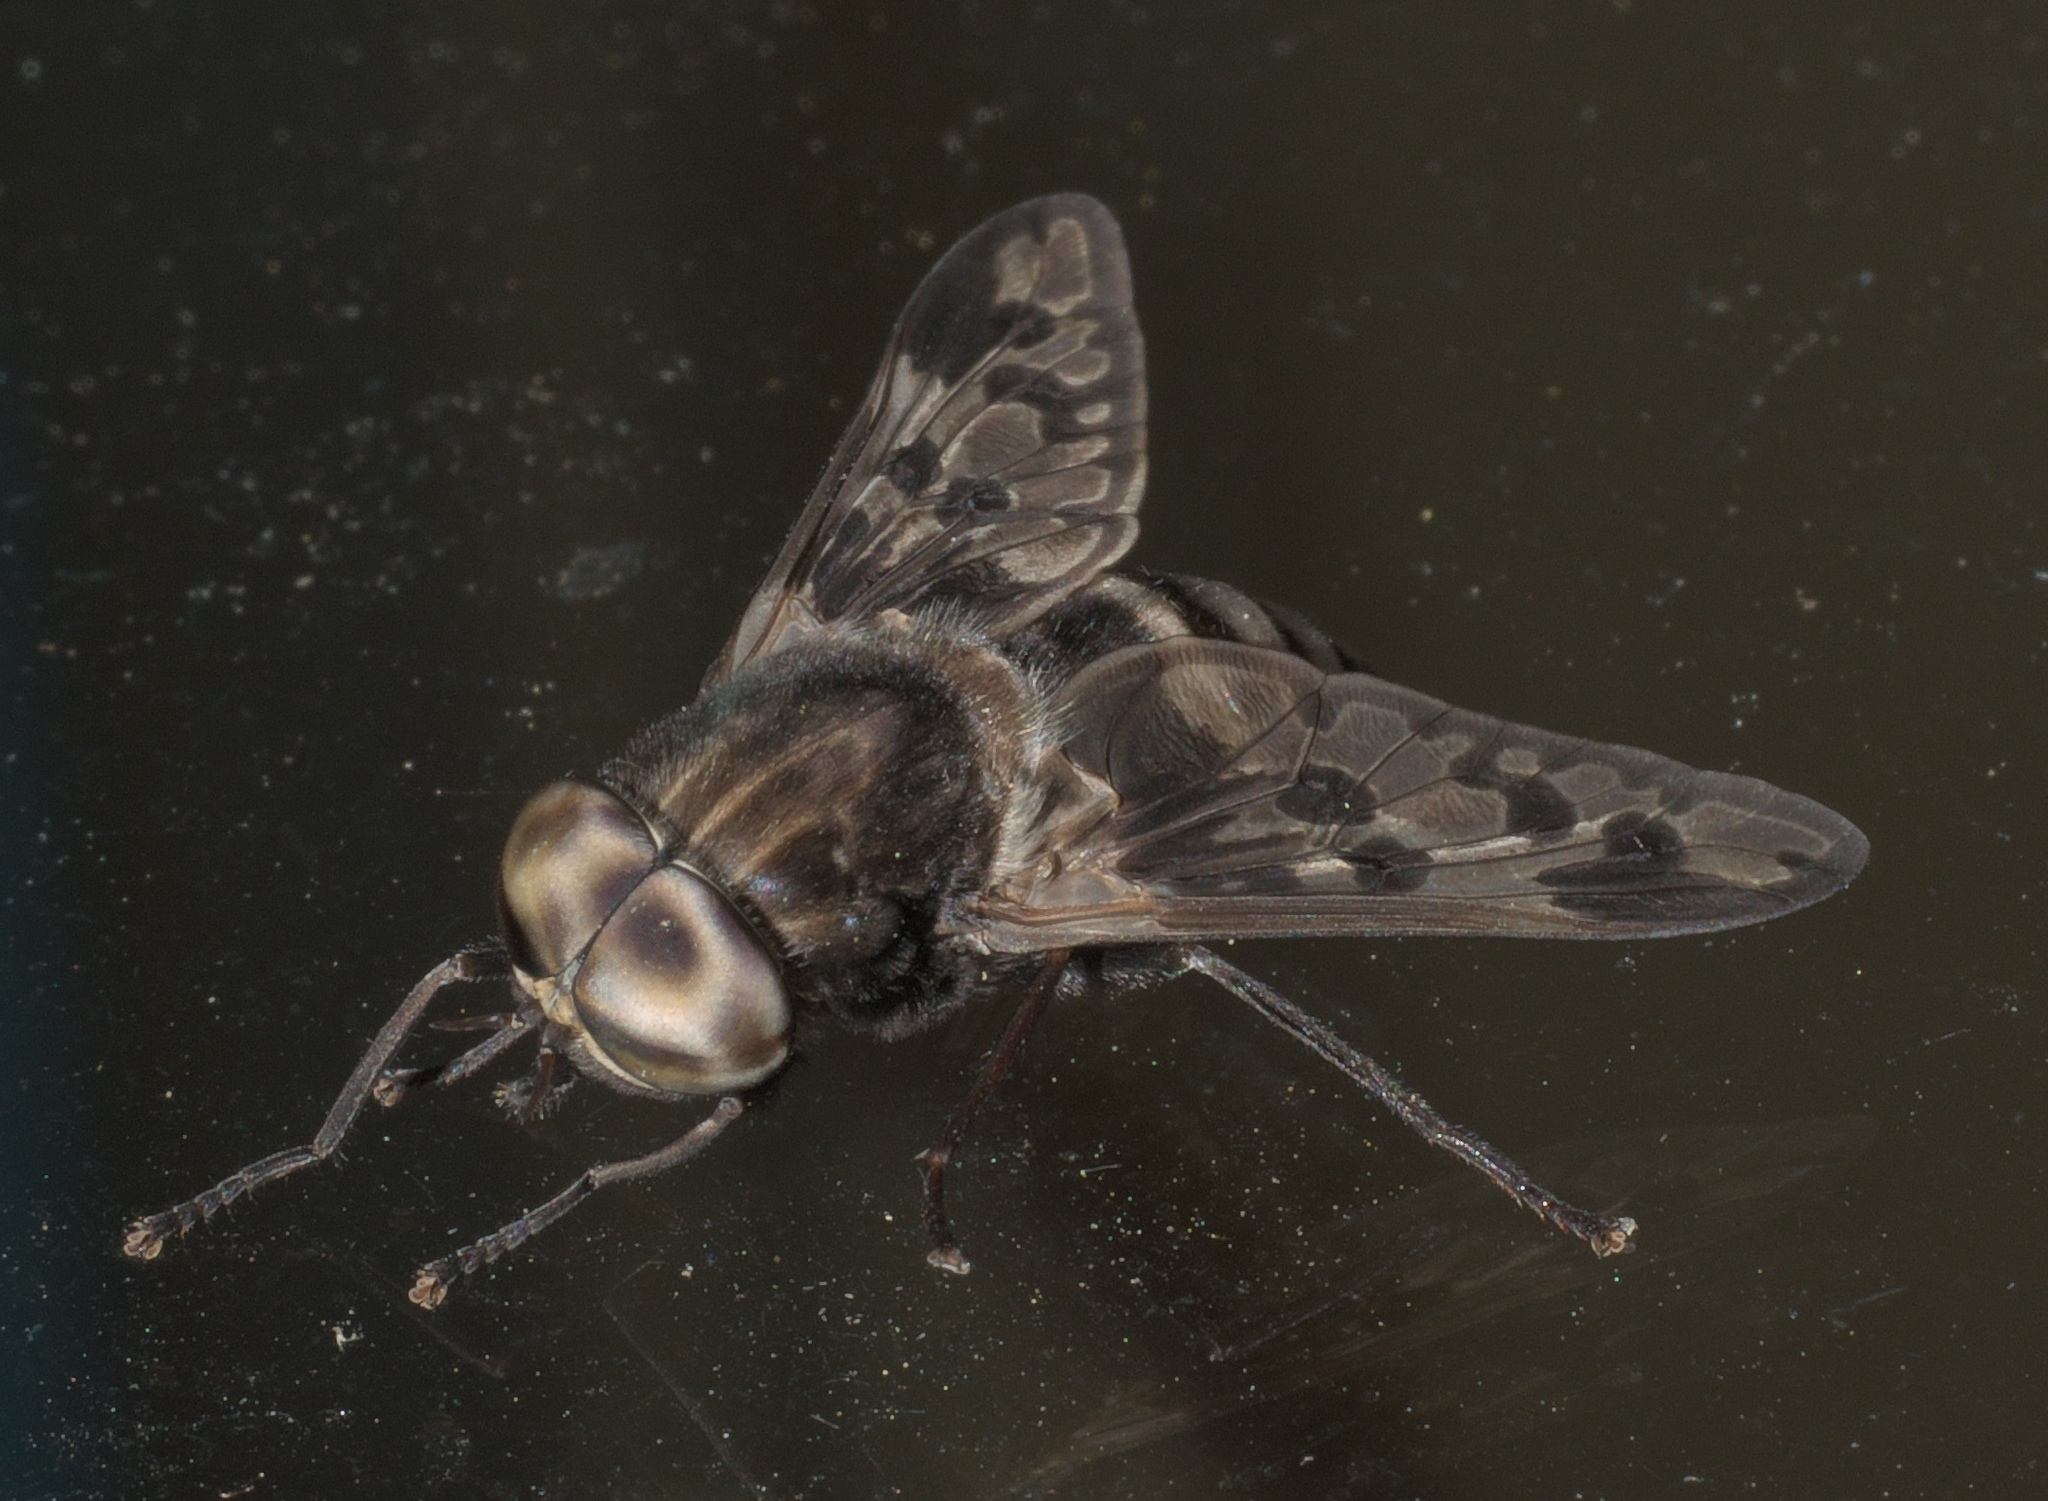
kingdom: Animalia
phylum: Arthropoda
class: Insecta
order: Diptera
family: Tabanidae
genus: Tabanus
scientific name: Tabanus venustus
